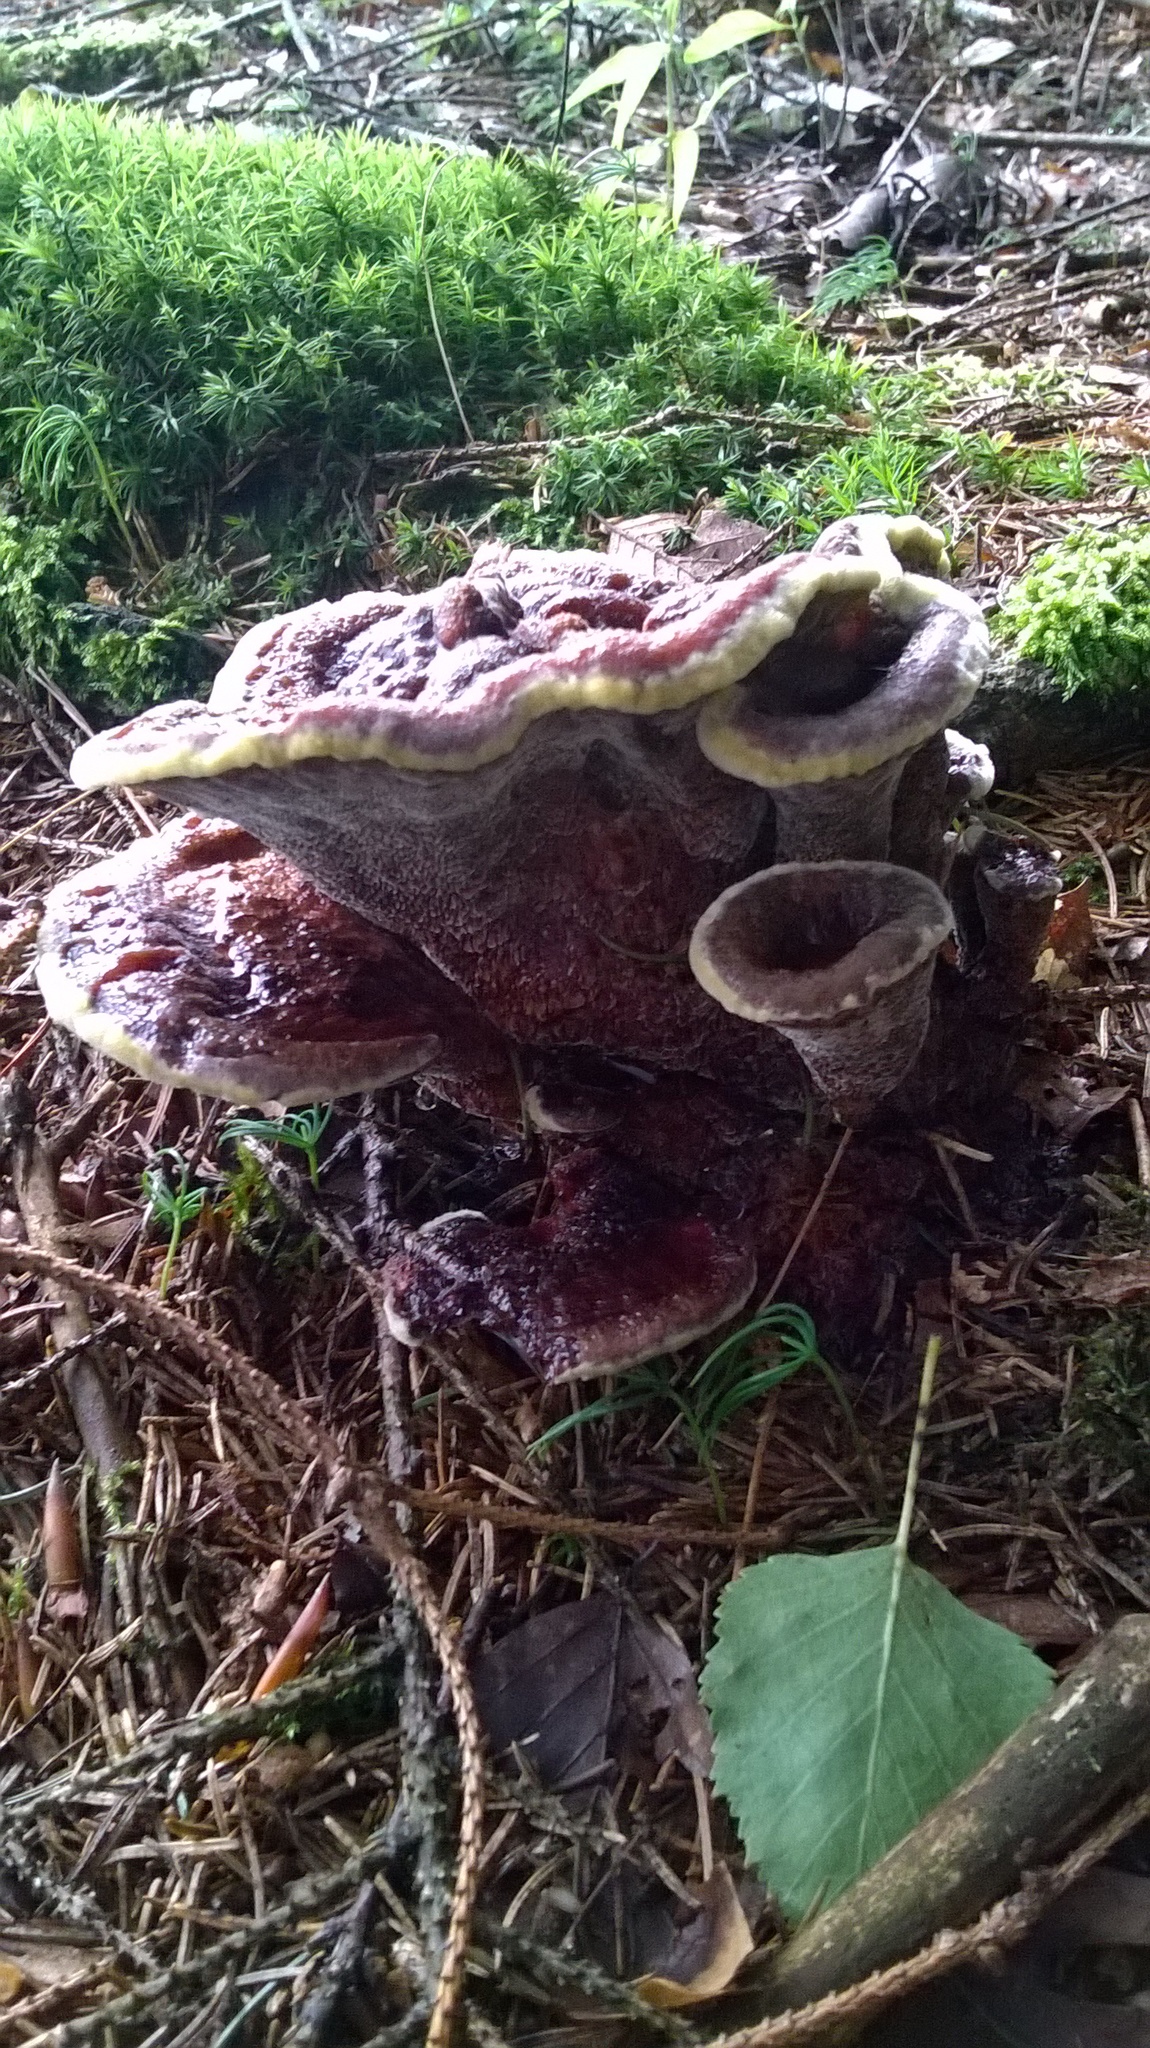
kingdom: Fungi
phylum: Basidiomycota
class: Agaricomycetes
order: Polyporales
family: Laetiporaceae
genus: Phaeolus
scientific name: Phaeolus schweinitzii
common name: Dyer's mazegill
